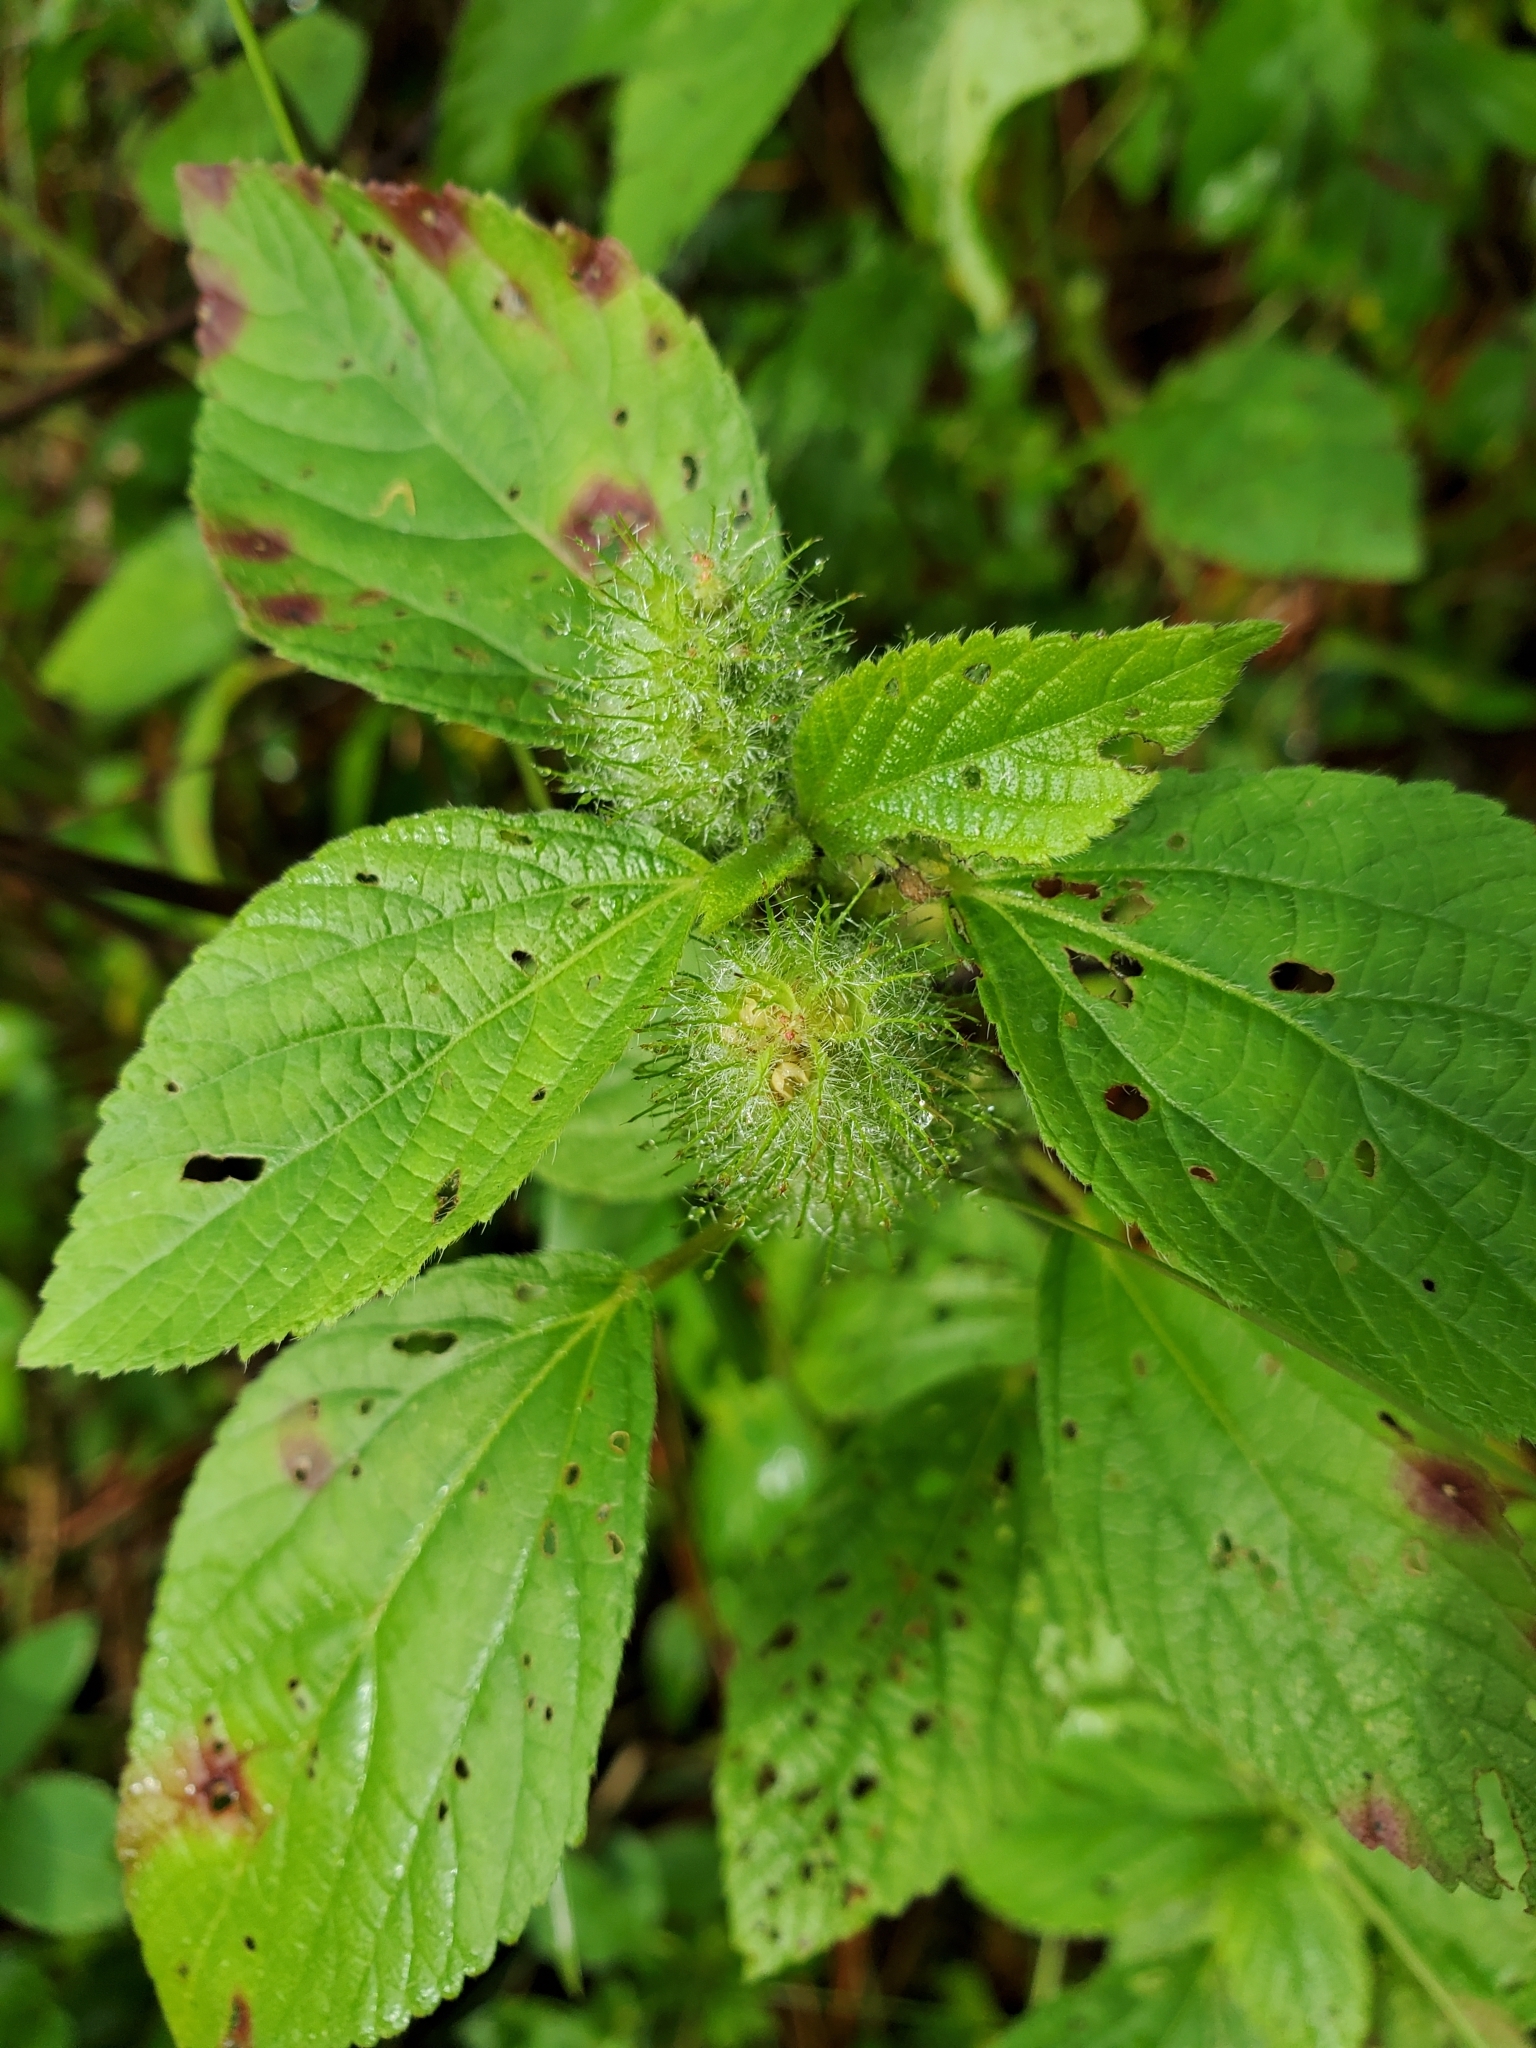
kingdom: Plantae
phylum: Tracheophyta
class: Magnoliopsida
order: Malpighiales
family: Euphorbiaceae
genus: Acalypha
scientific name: Acalypha arvensis
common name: Field copperleaf
